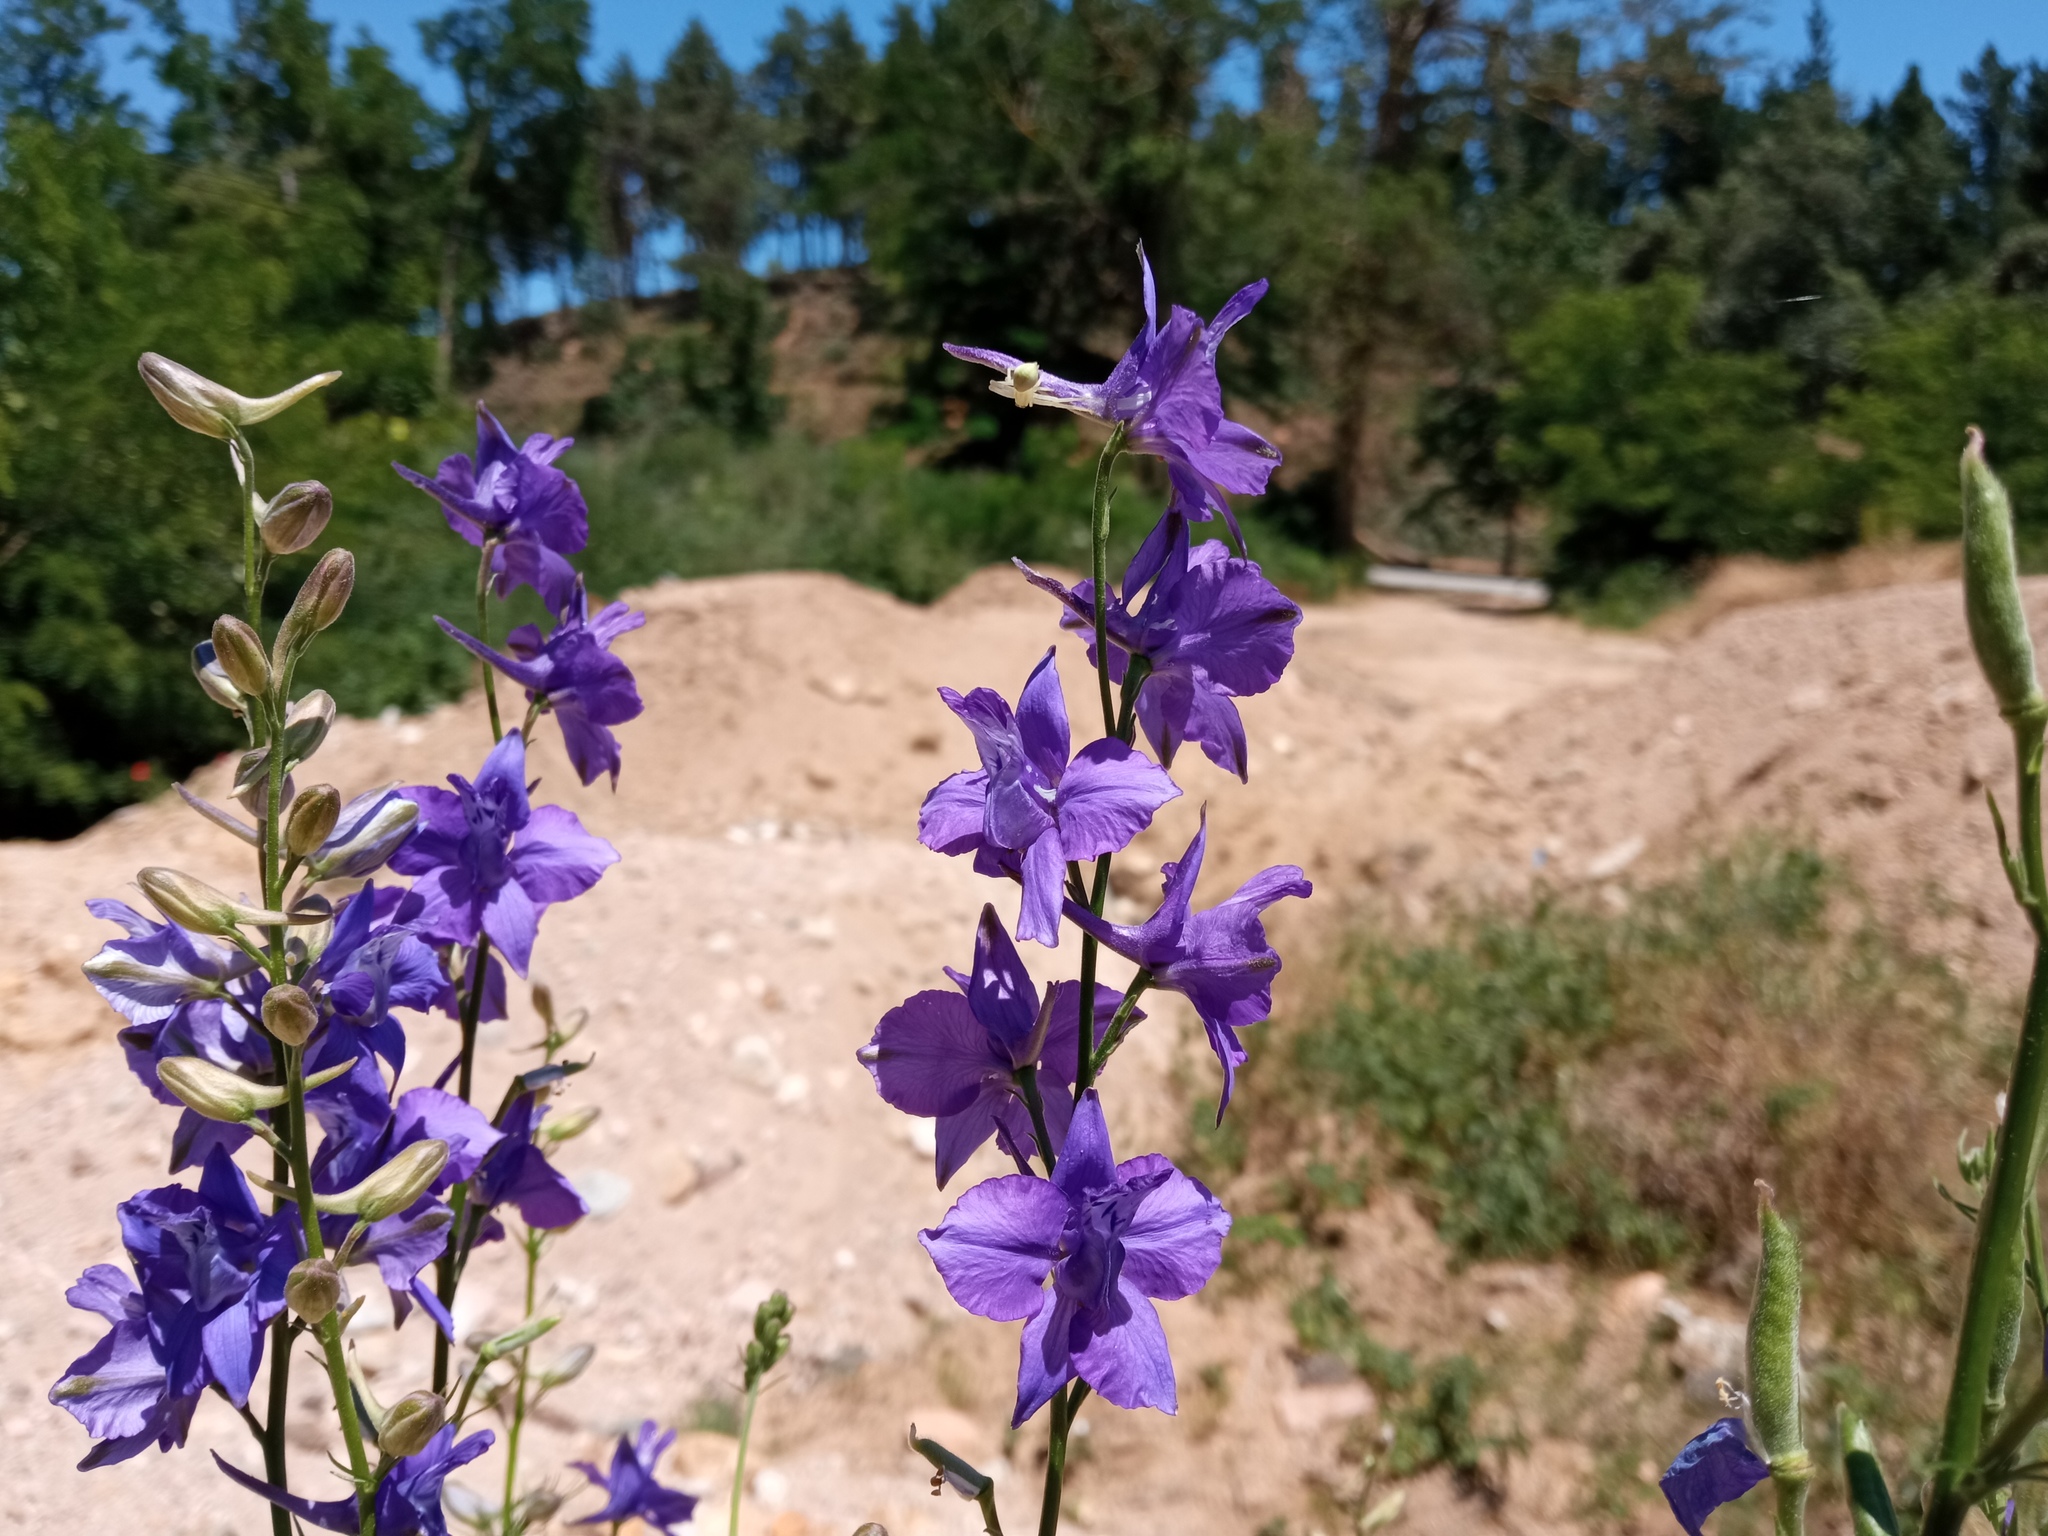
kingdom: Plantae
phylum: Tracheophyta
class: Magnoliopsida
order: Ranunculales
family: Ranunculaceae
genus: Delphinium
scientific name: Delphinium ajacis
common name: Doubtful knight's-spur
